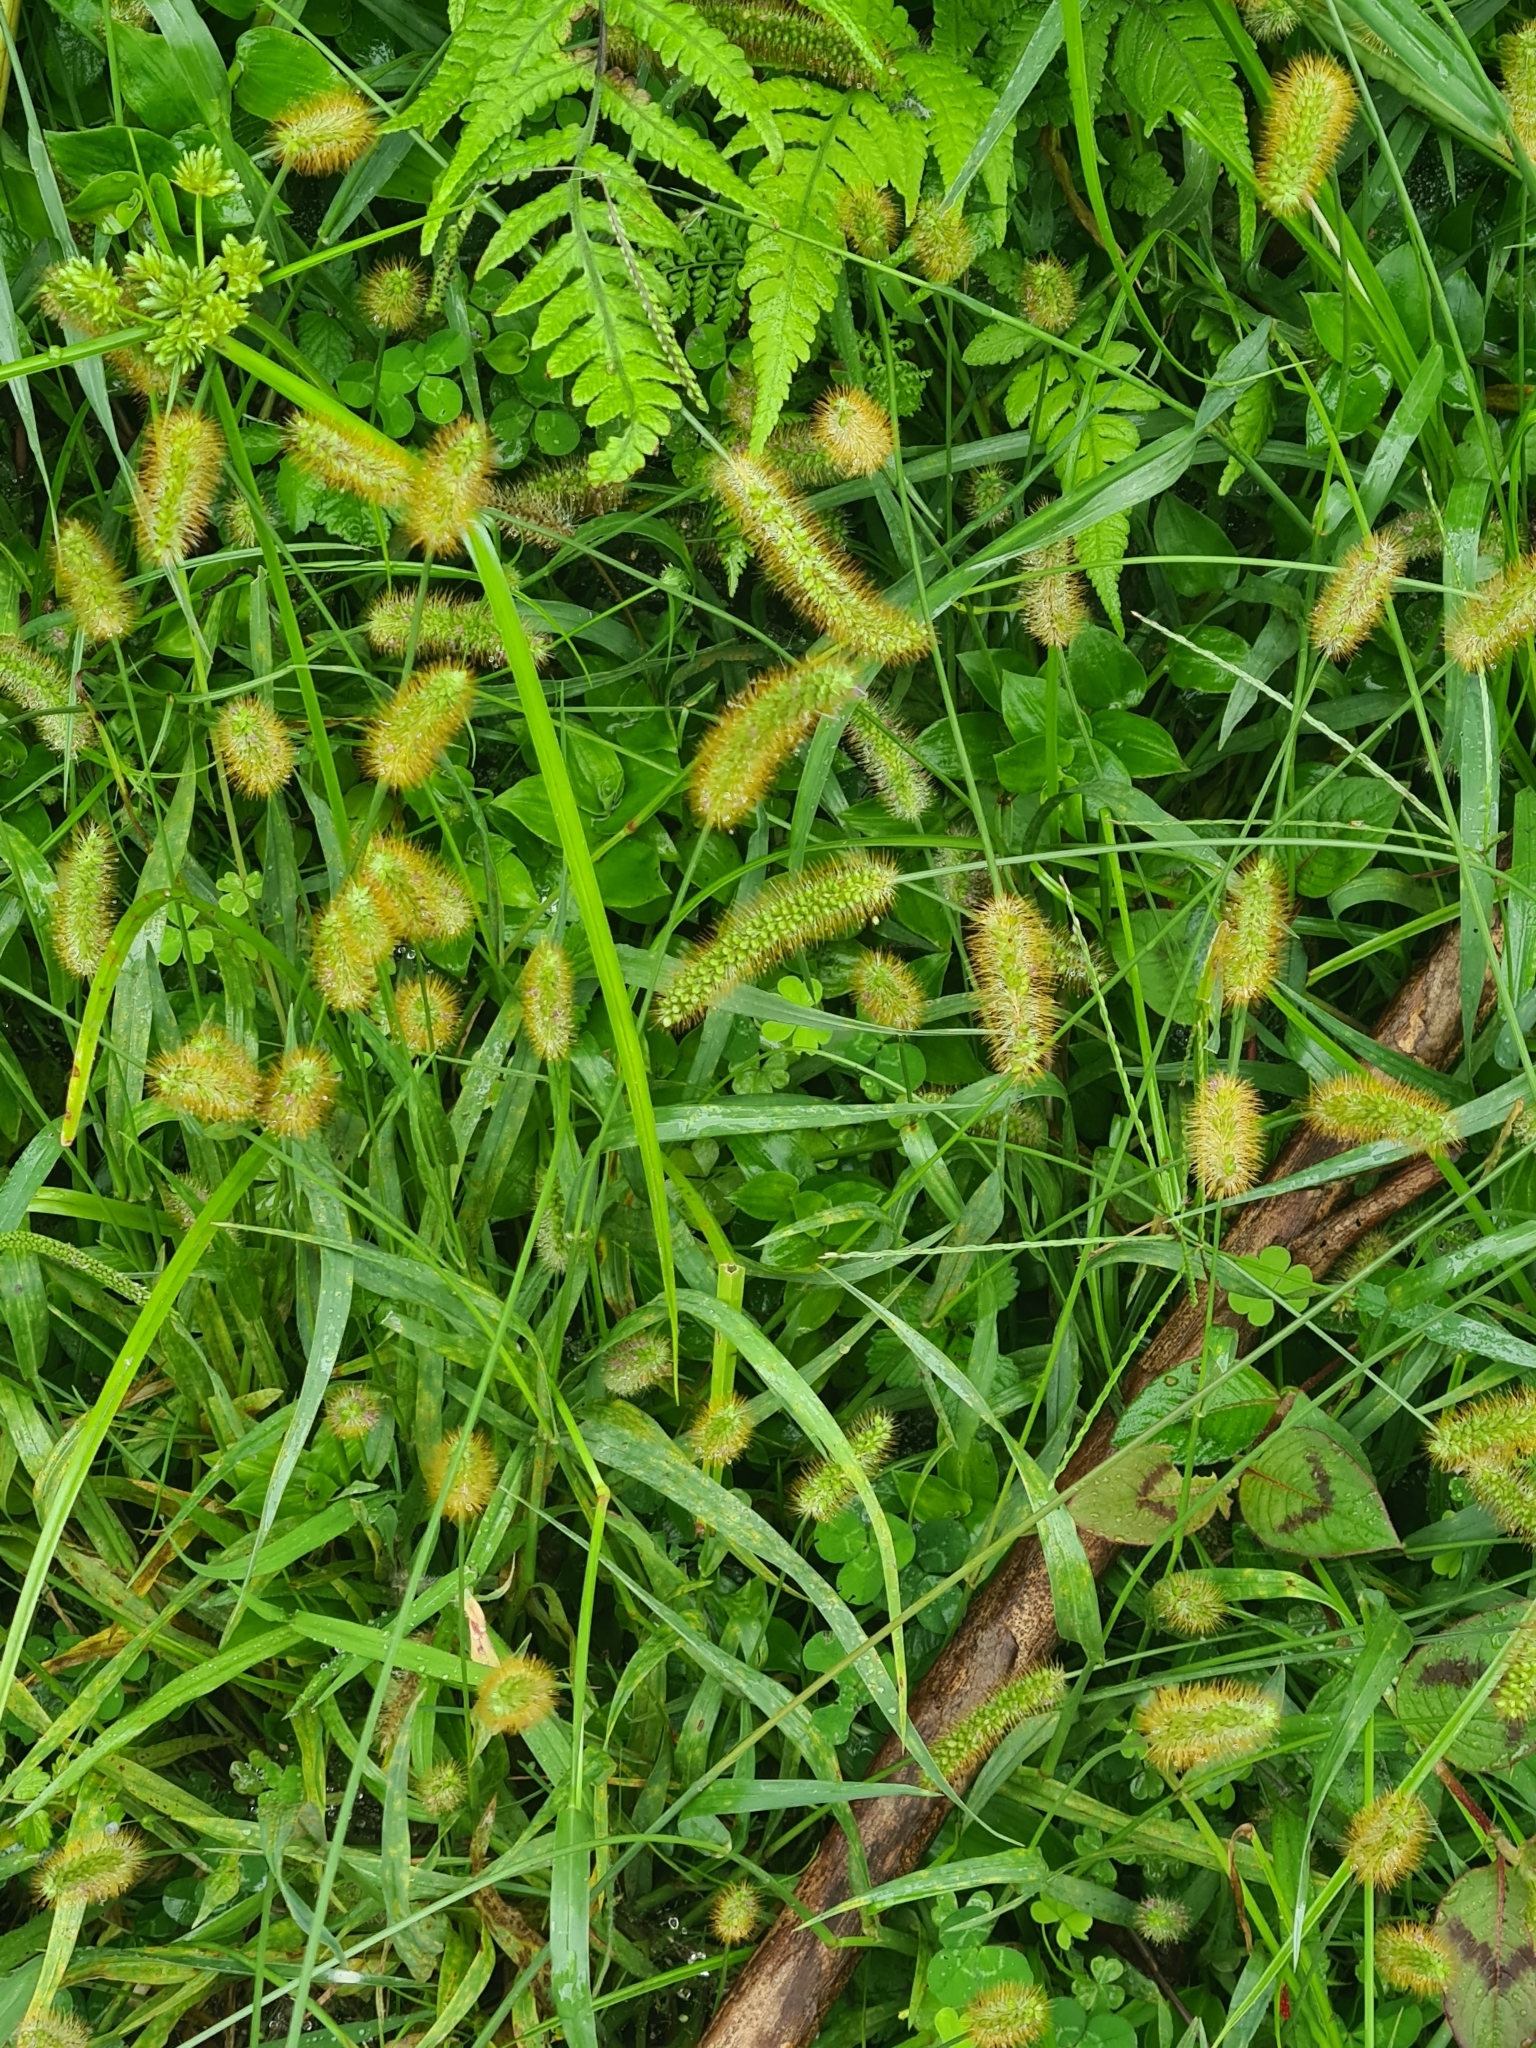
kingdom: Plantae
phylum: Tracheophyta
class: Liliopsida
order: Poales
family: Poaceae
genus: Setaria
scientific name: Setaria pumila
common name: Yellow bristle-grass
